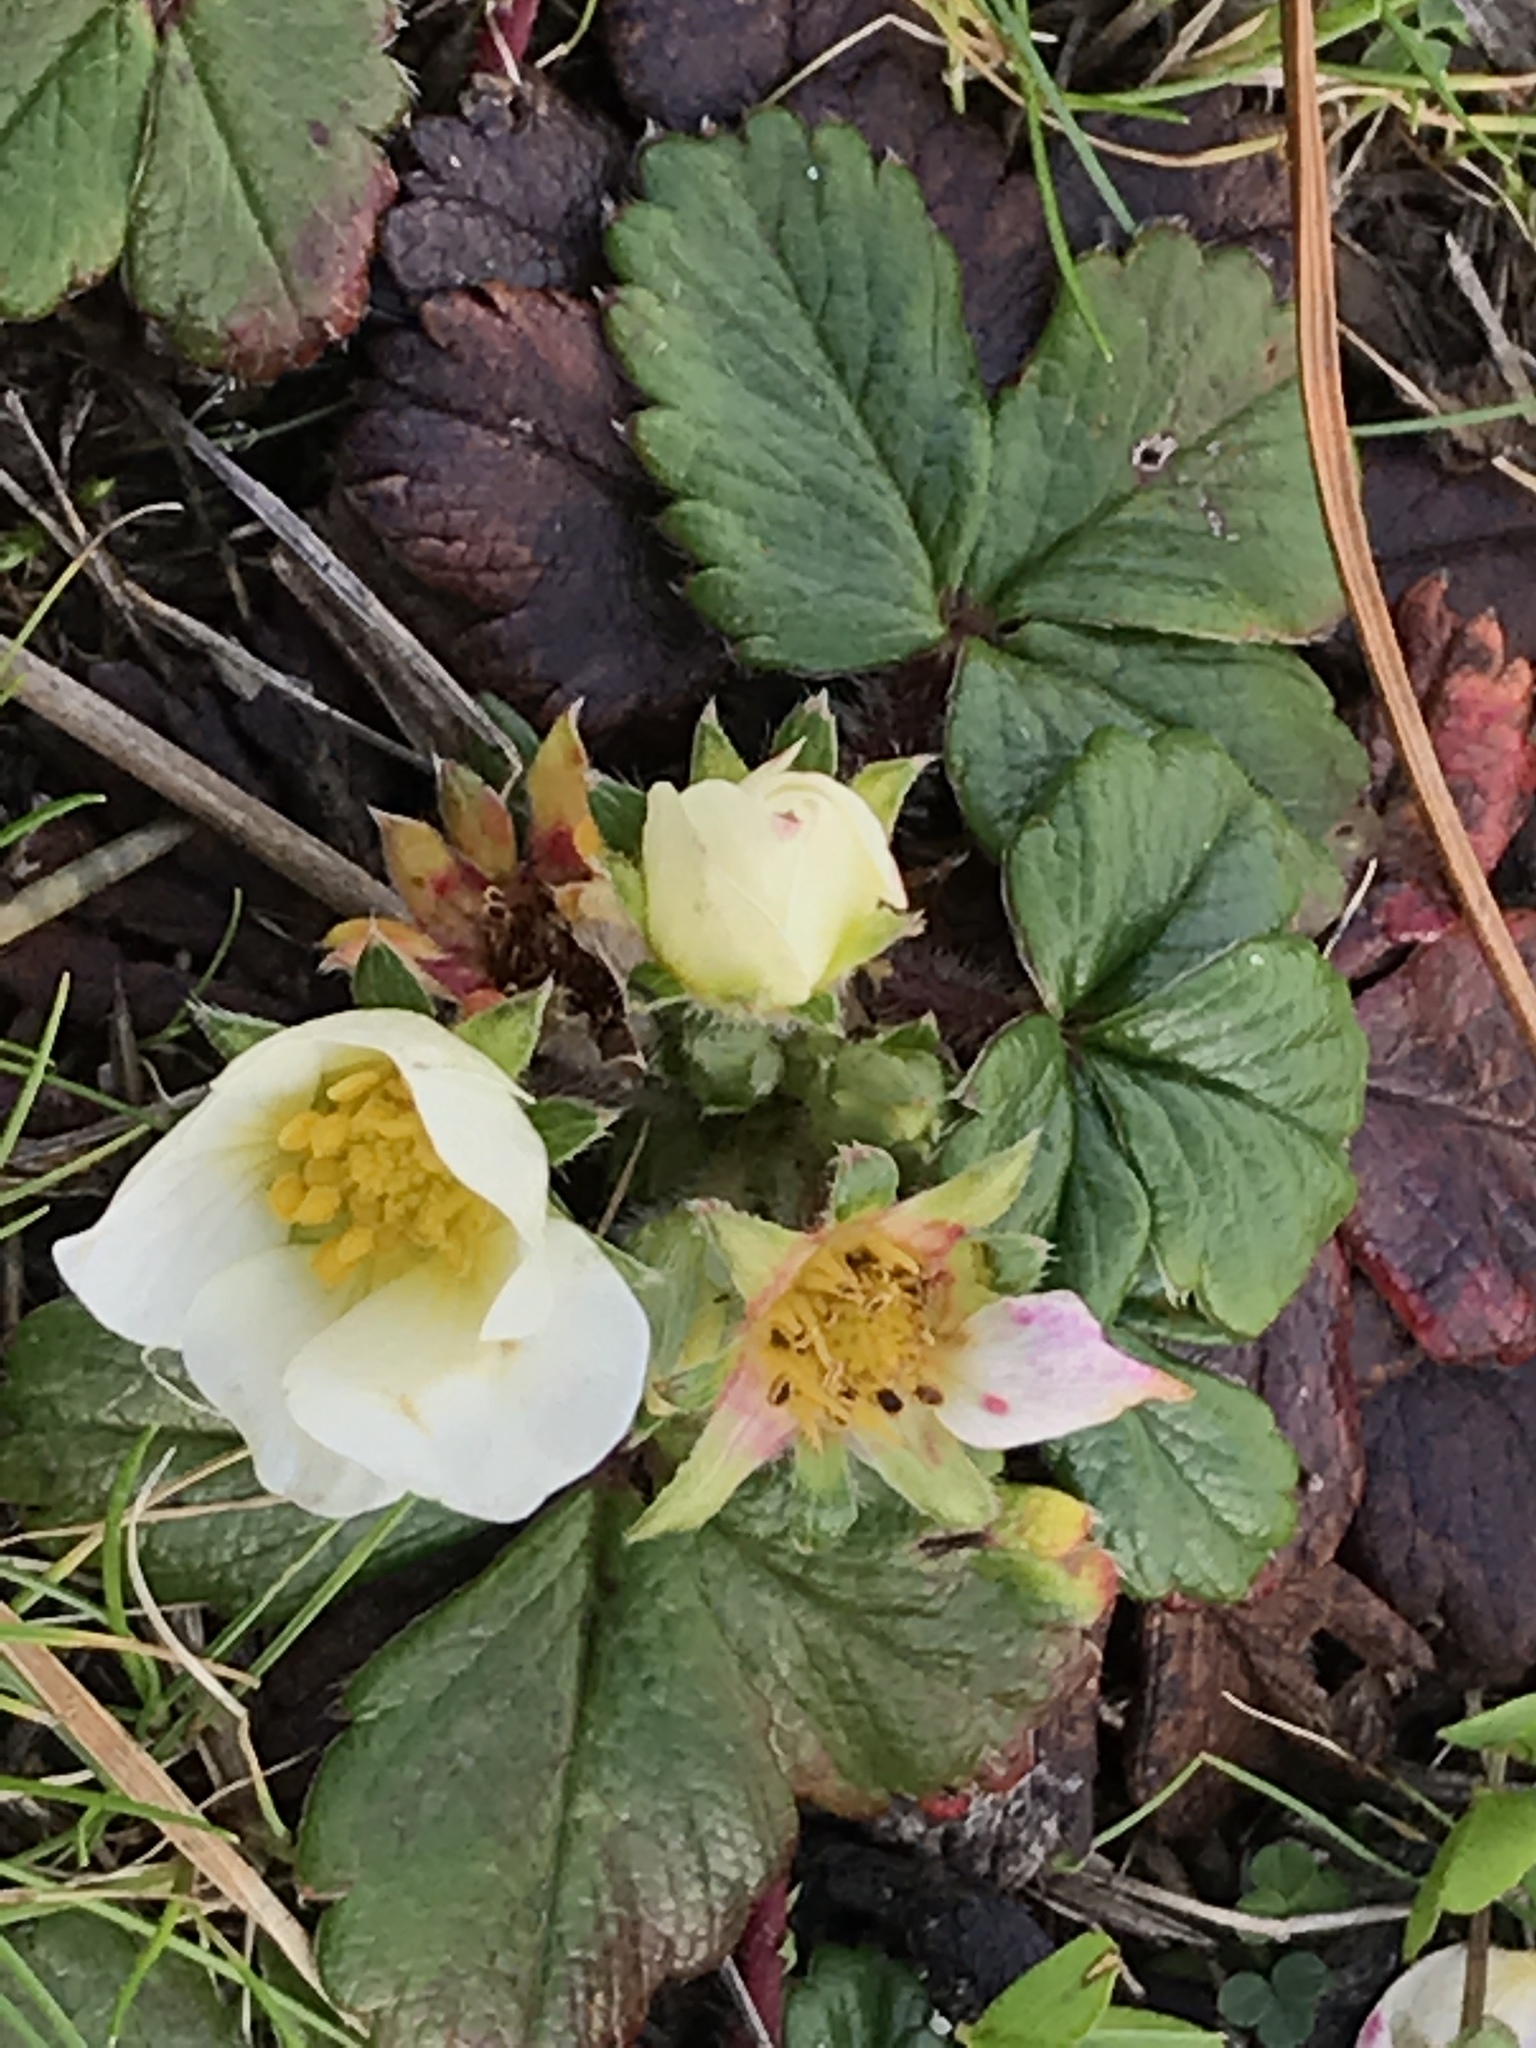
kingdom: Plantae
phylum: Tracheophyta
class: Magnoliopsida
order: Rosales
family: Rosaceae
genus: Fragaria
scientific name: Fragaria chiloensis
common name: Beach strawberry
